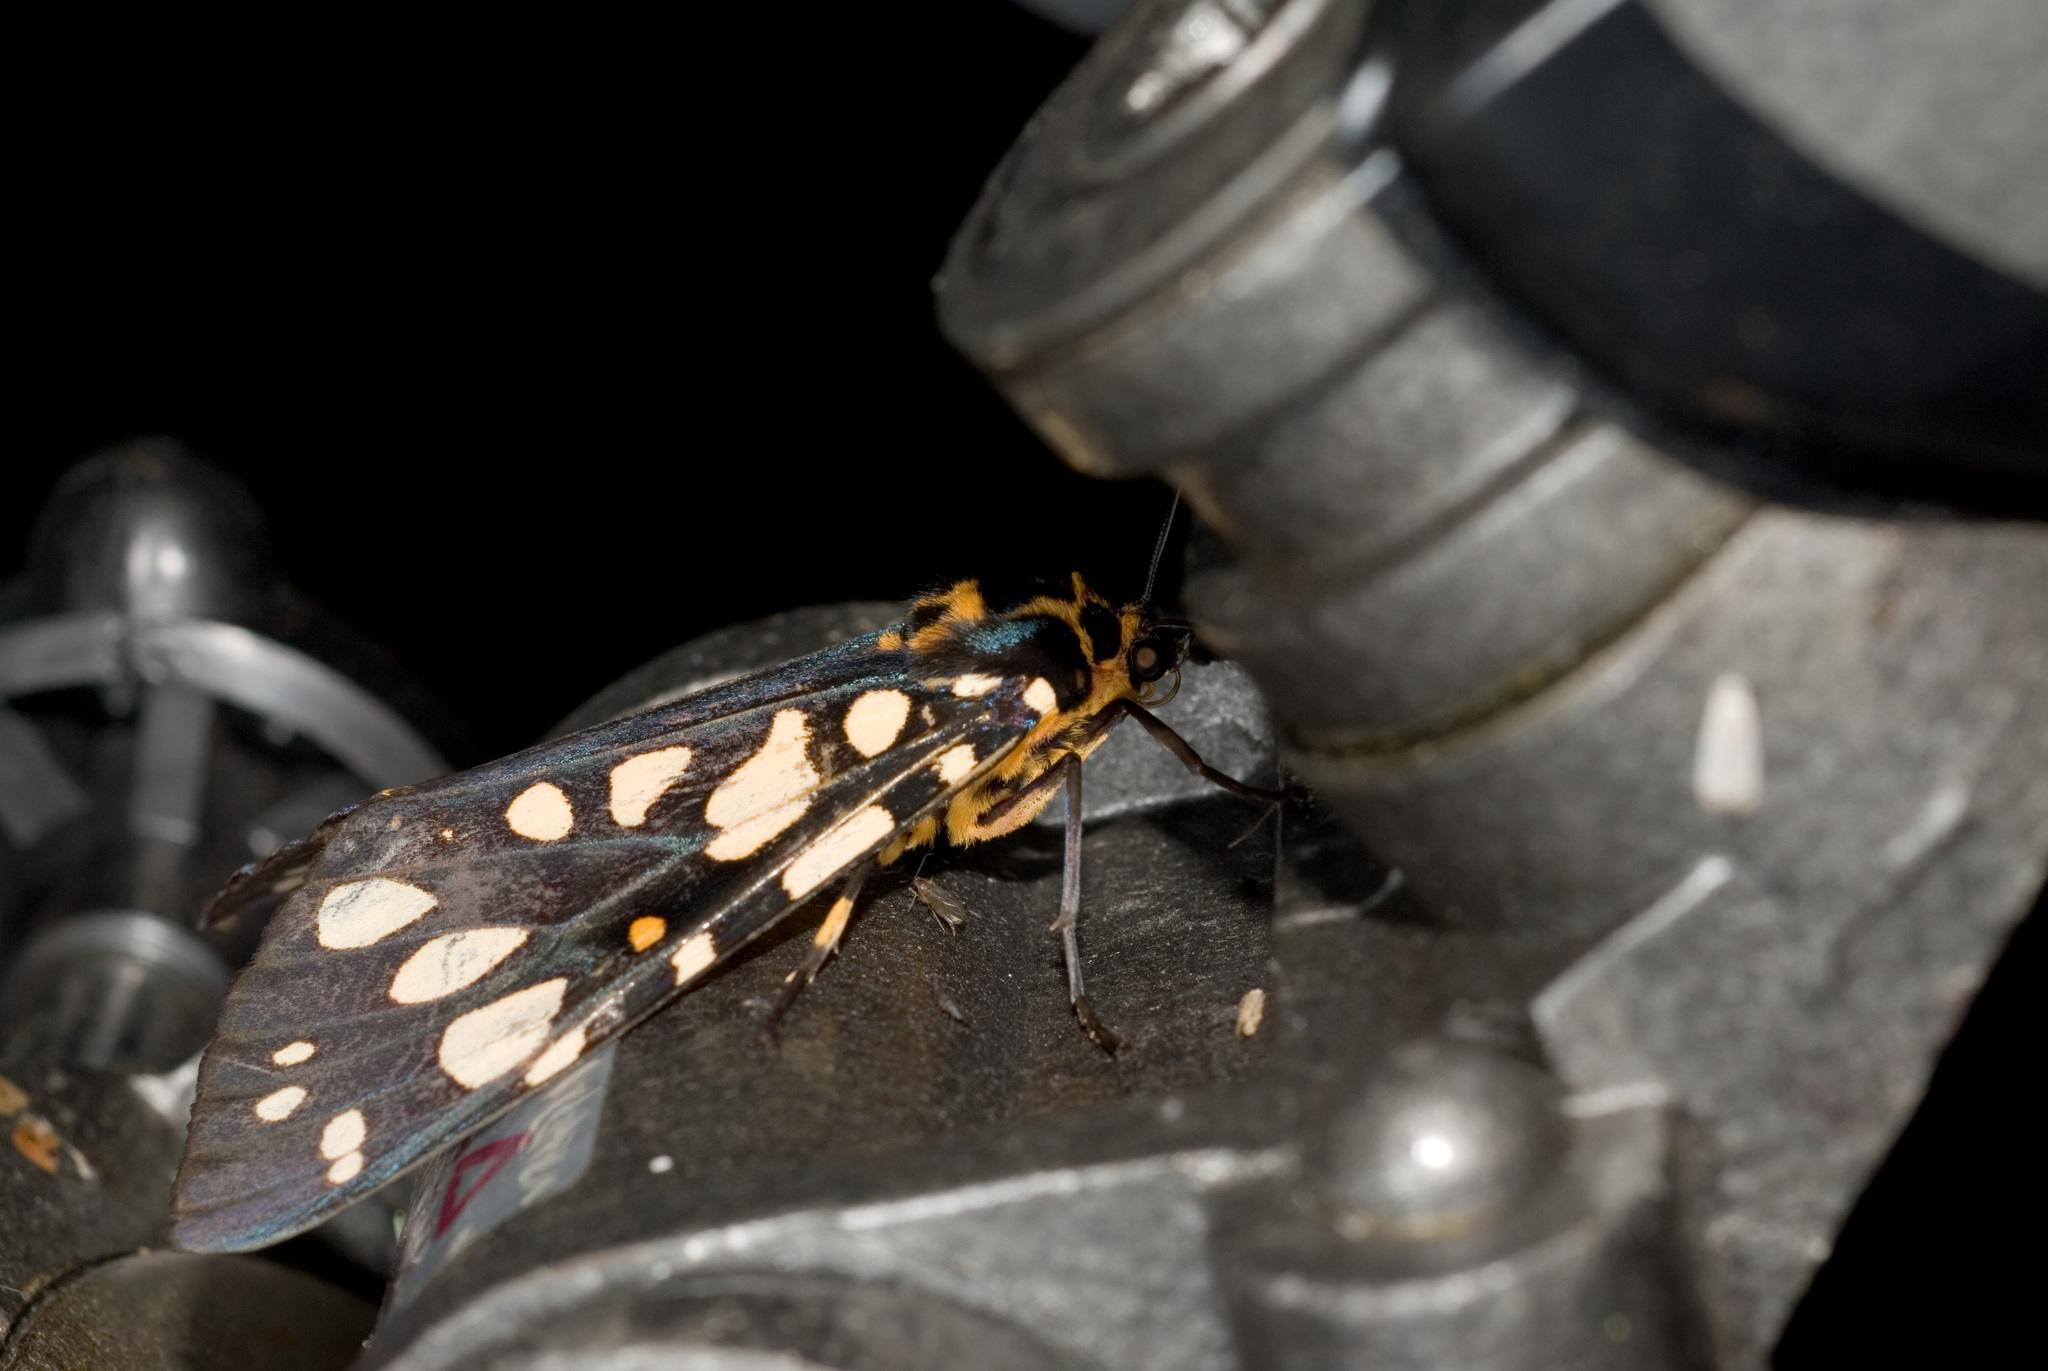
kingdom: Animalia
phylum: Arthropoda
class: Insecta
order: Lepidoptera
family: Erebidae
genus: Aglaomorpha
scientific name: Aglaomorpha histrio
